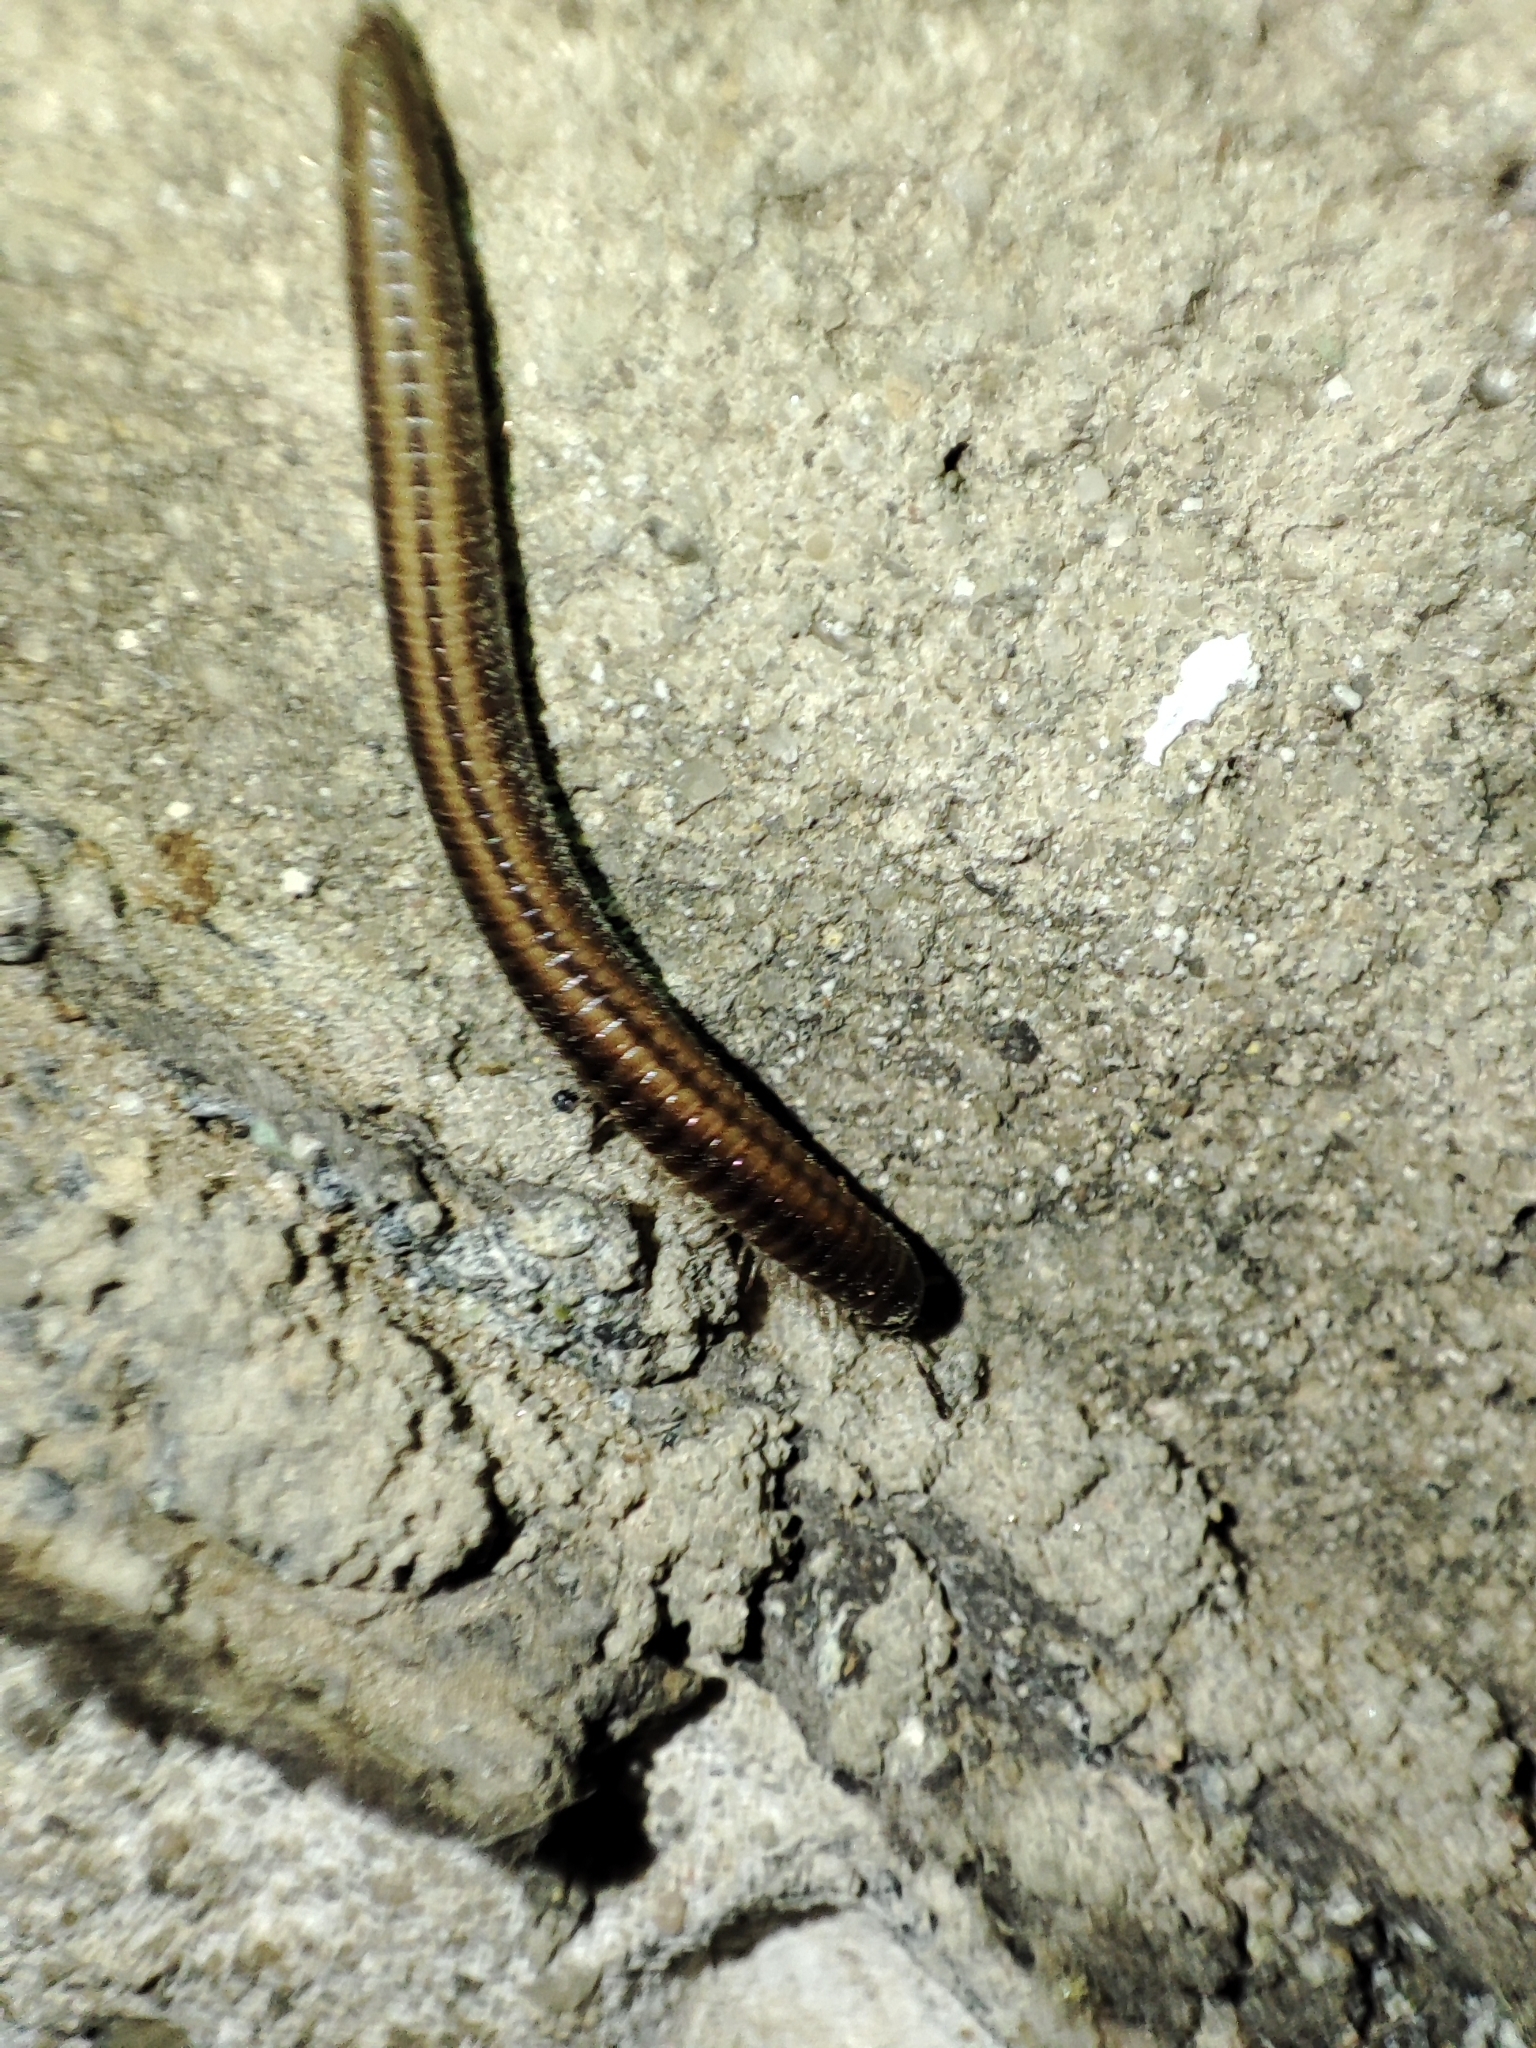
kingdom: Animalia
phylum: Arthropoda
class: Diplopoda
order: Julida
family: Julidae
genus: Ommatoiulus
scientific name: Ommatoiulus sabulosus
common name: Striped millipede
